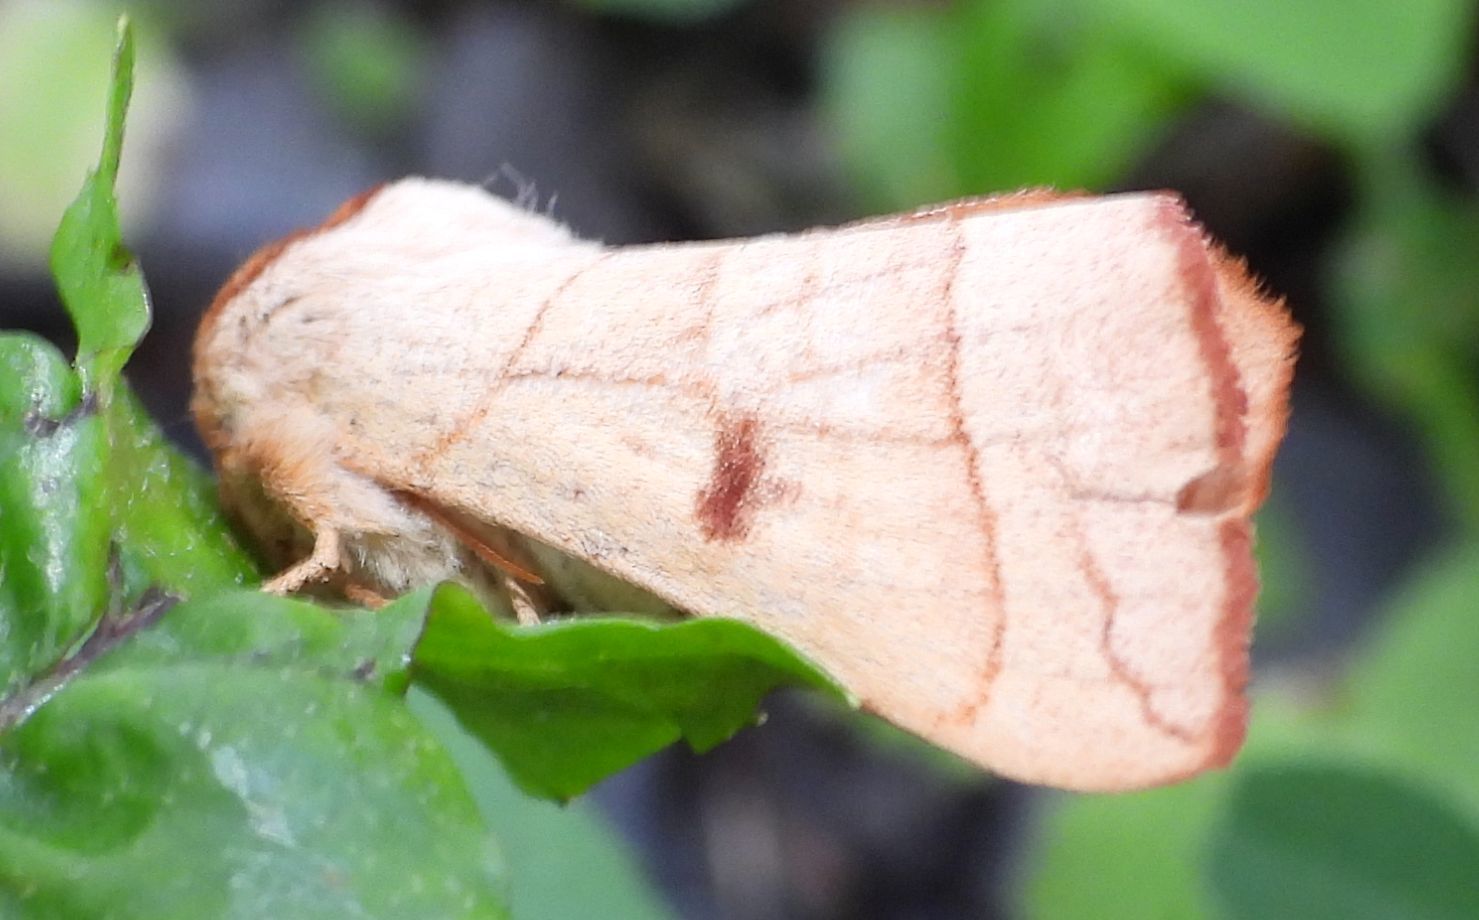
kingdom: Animalia
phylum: Arthropoda
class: Insecta
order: Lepidoptera
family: Notodontidae
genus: Datana
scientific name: Datana perspicua
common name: Spotted datana
